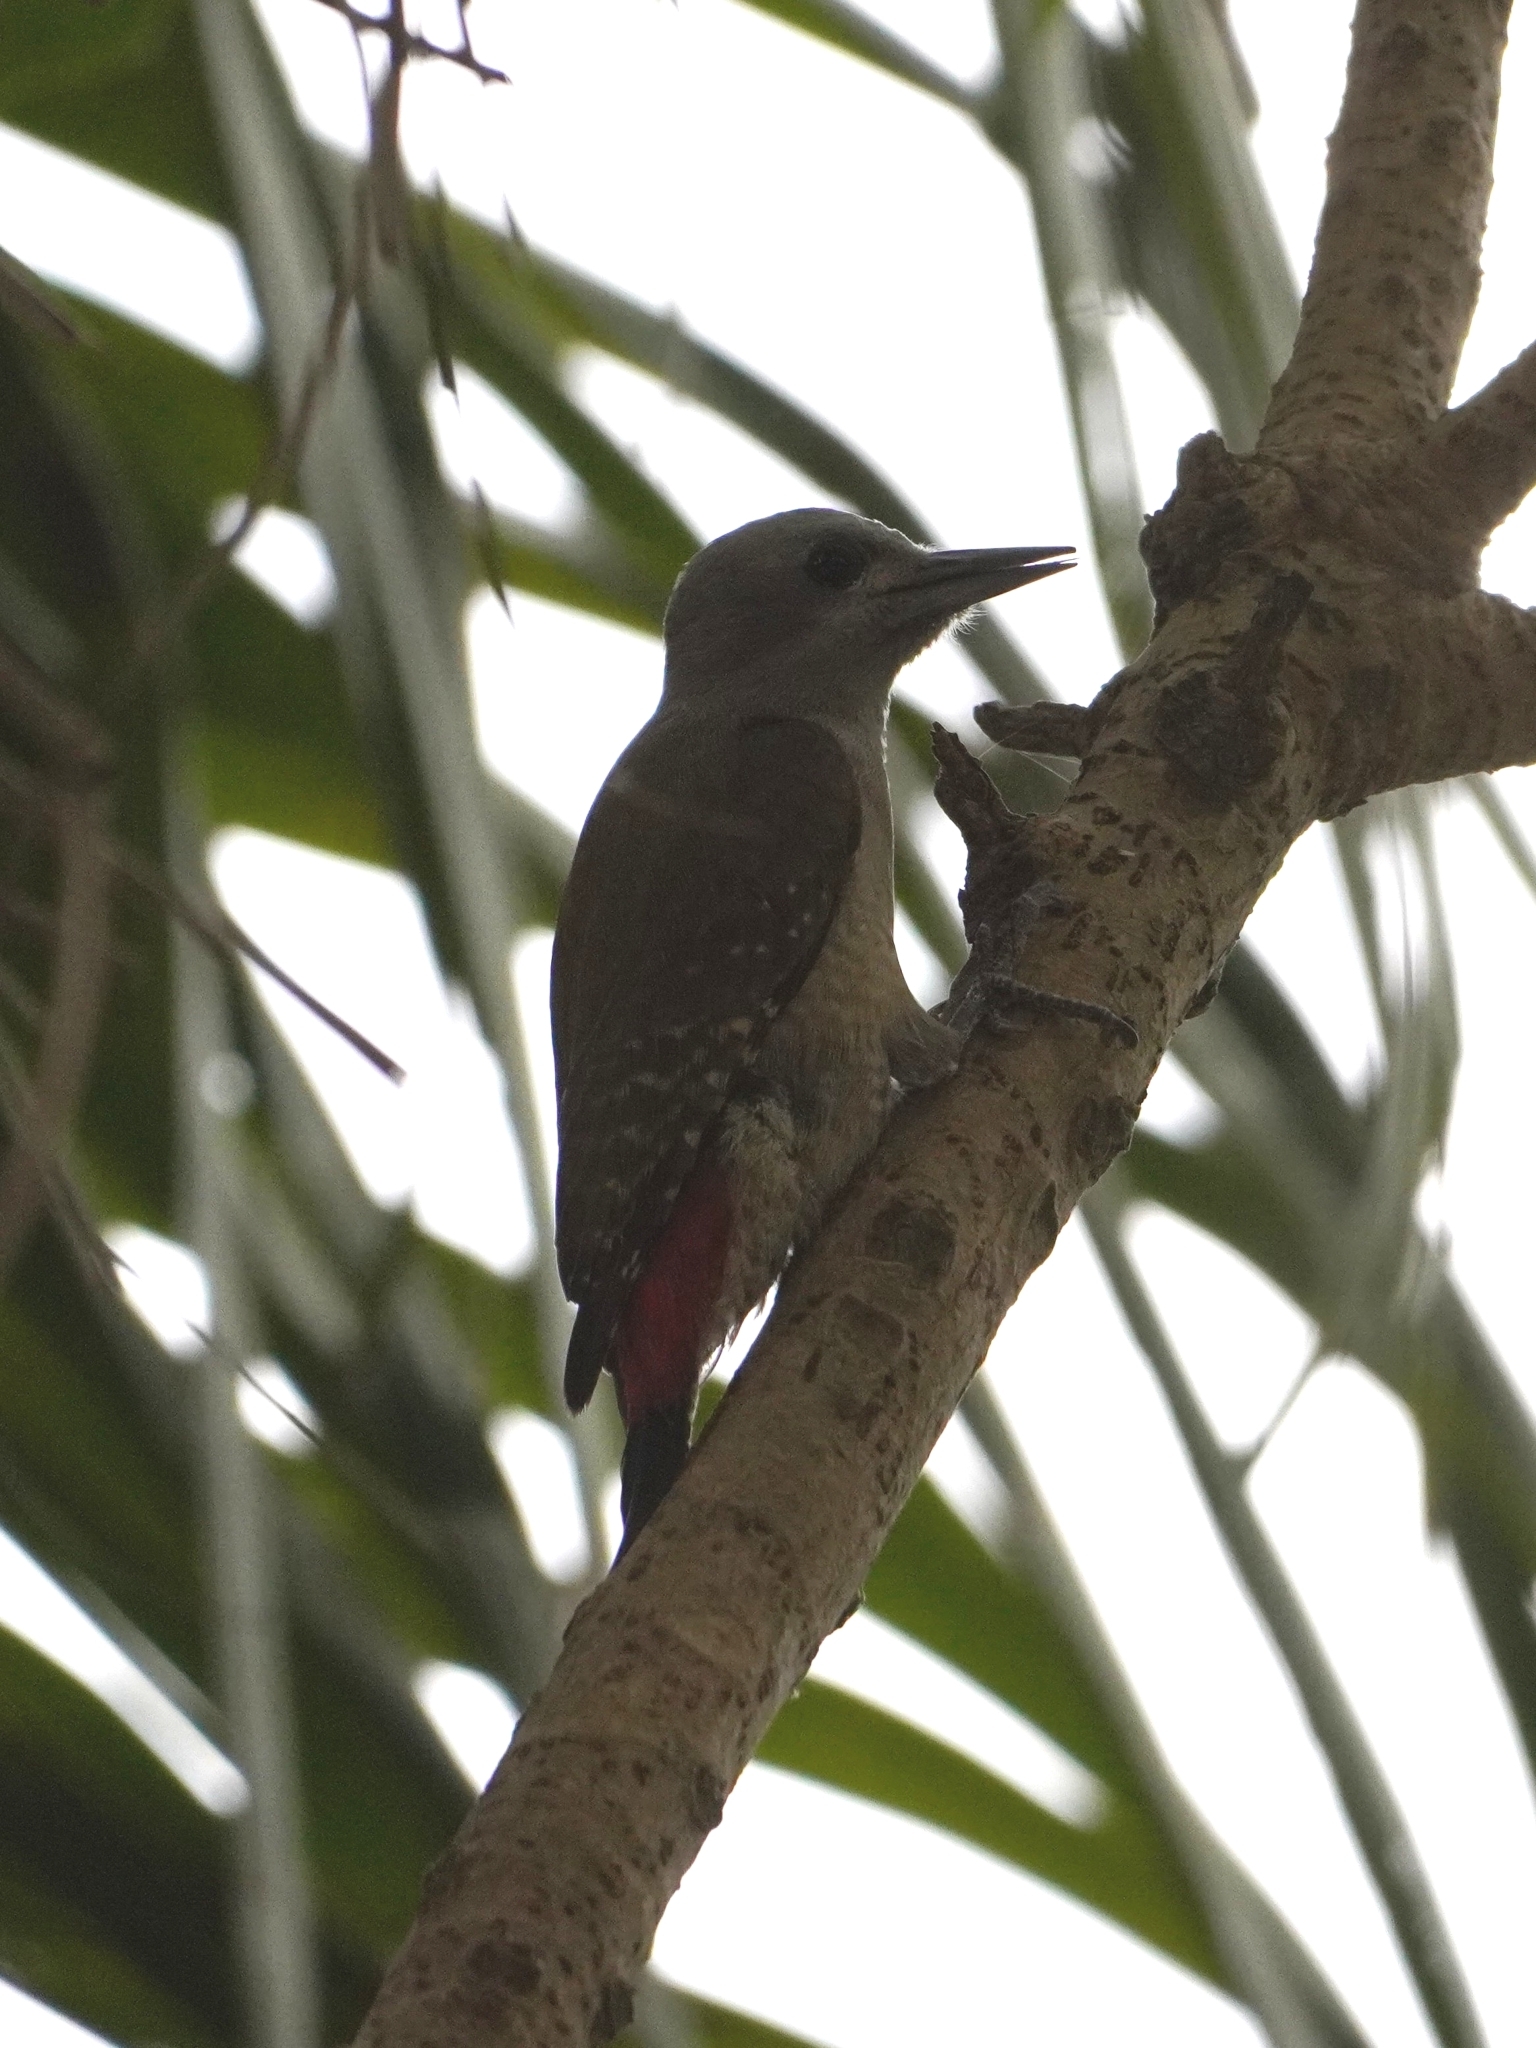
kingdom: Animalia
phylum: Chordata
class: Aves
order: Piciformes
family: Picidae
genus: Dendropicos
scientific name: Dendropicos goertae
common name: African grey woodpecker
